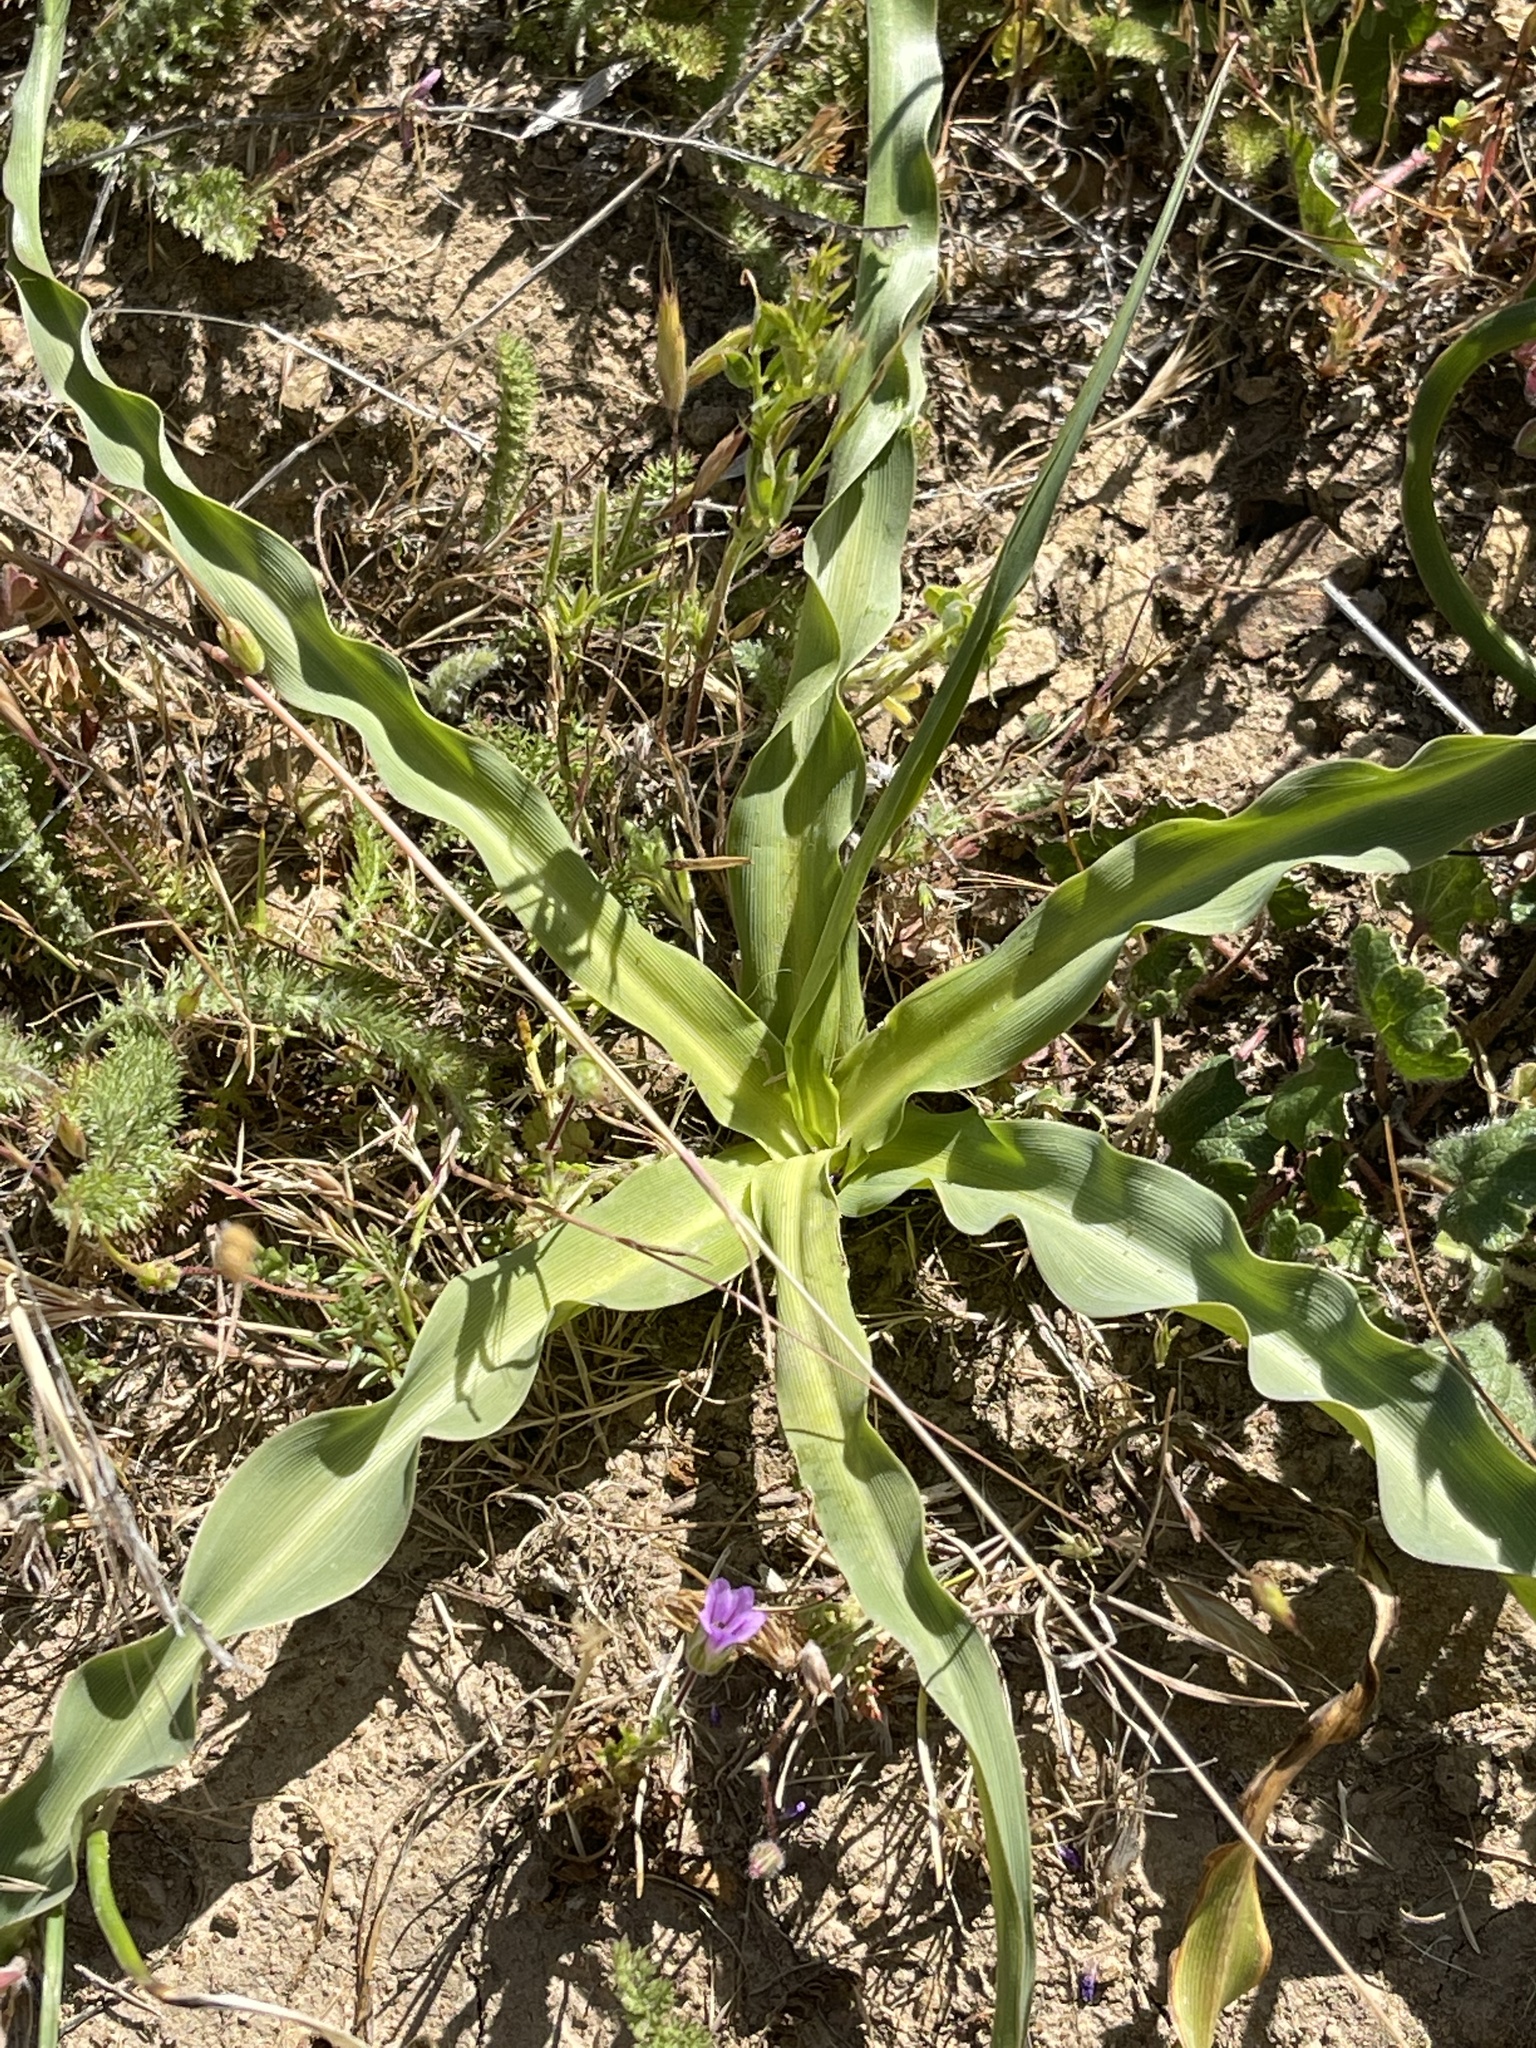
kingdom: Plantae
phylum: Tracheophyta
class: Liliopsida
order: Asparagales
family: Asparagaceae
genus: Chlorogalum
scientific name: Chlorogalum pomeridianum
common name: Amole
